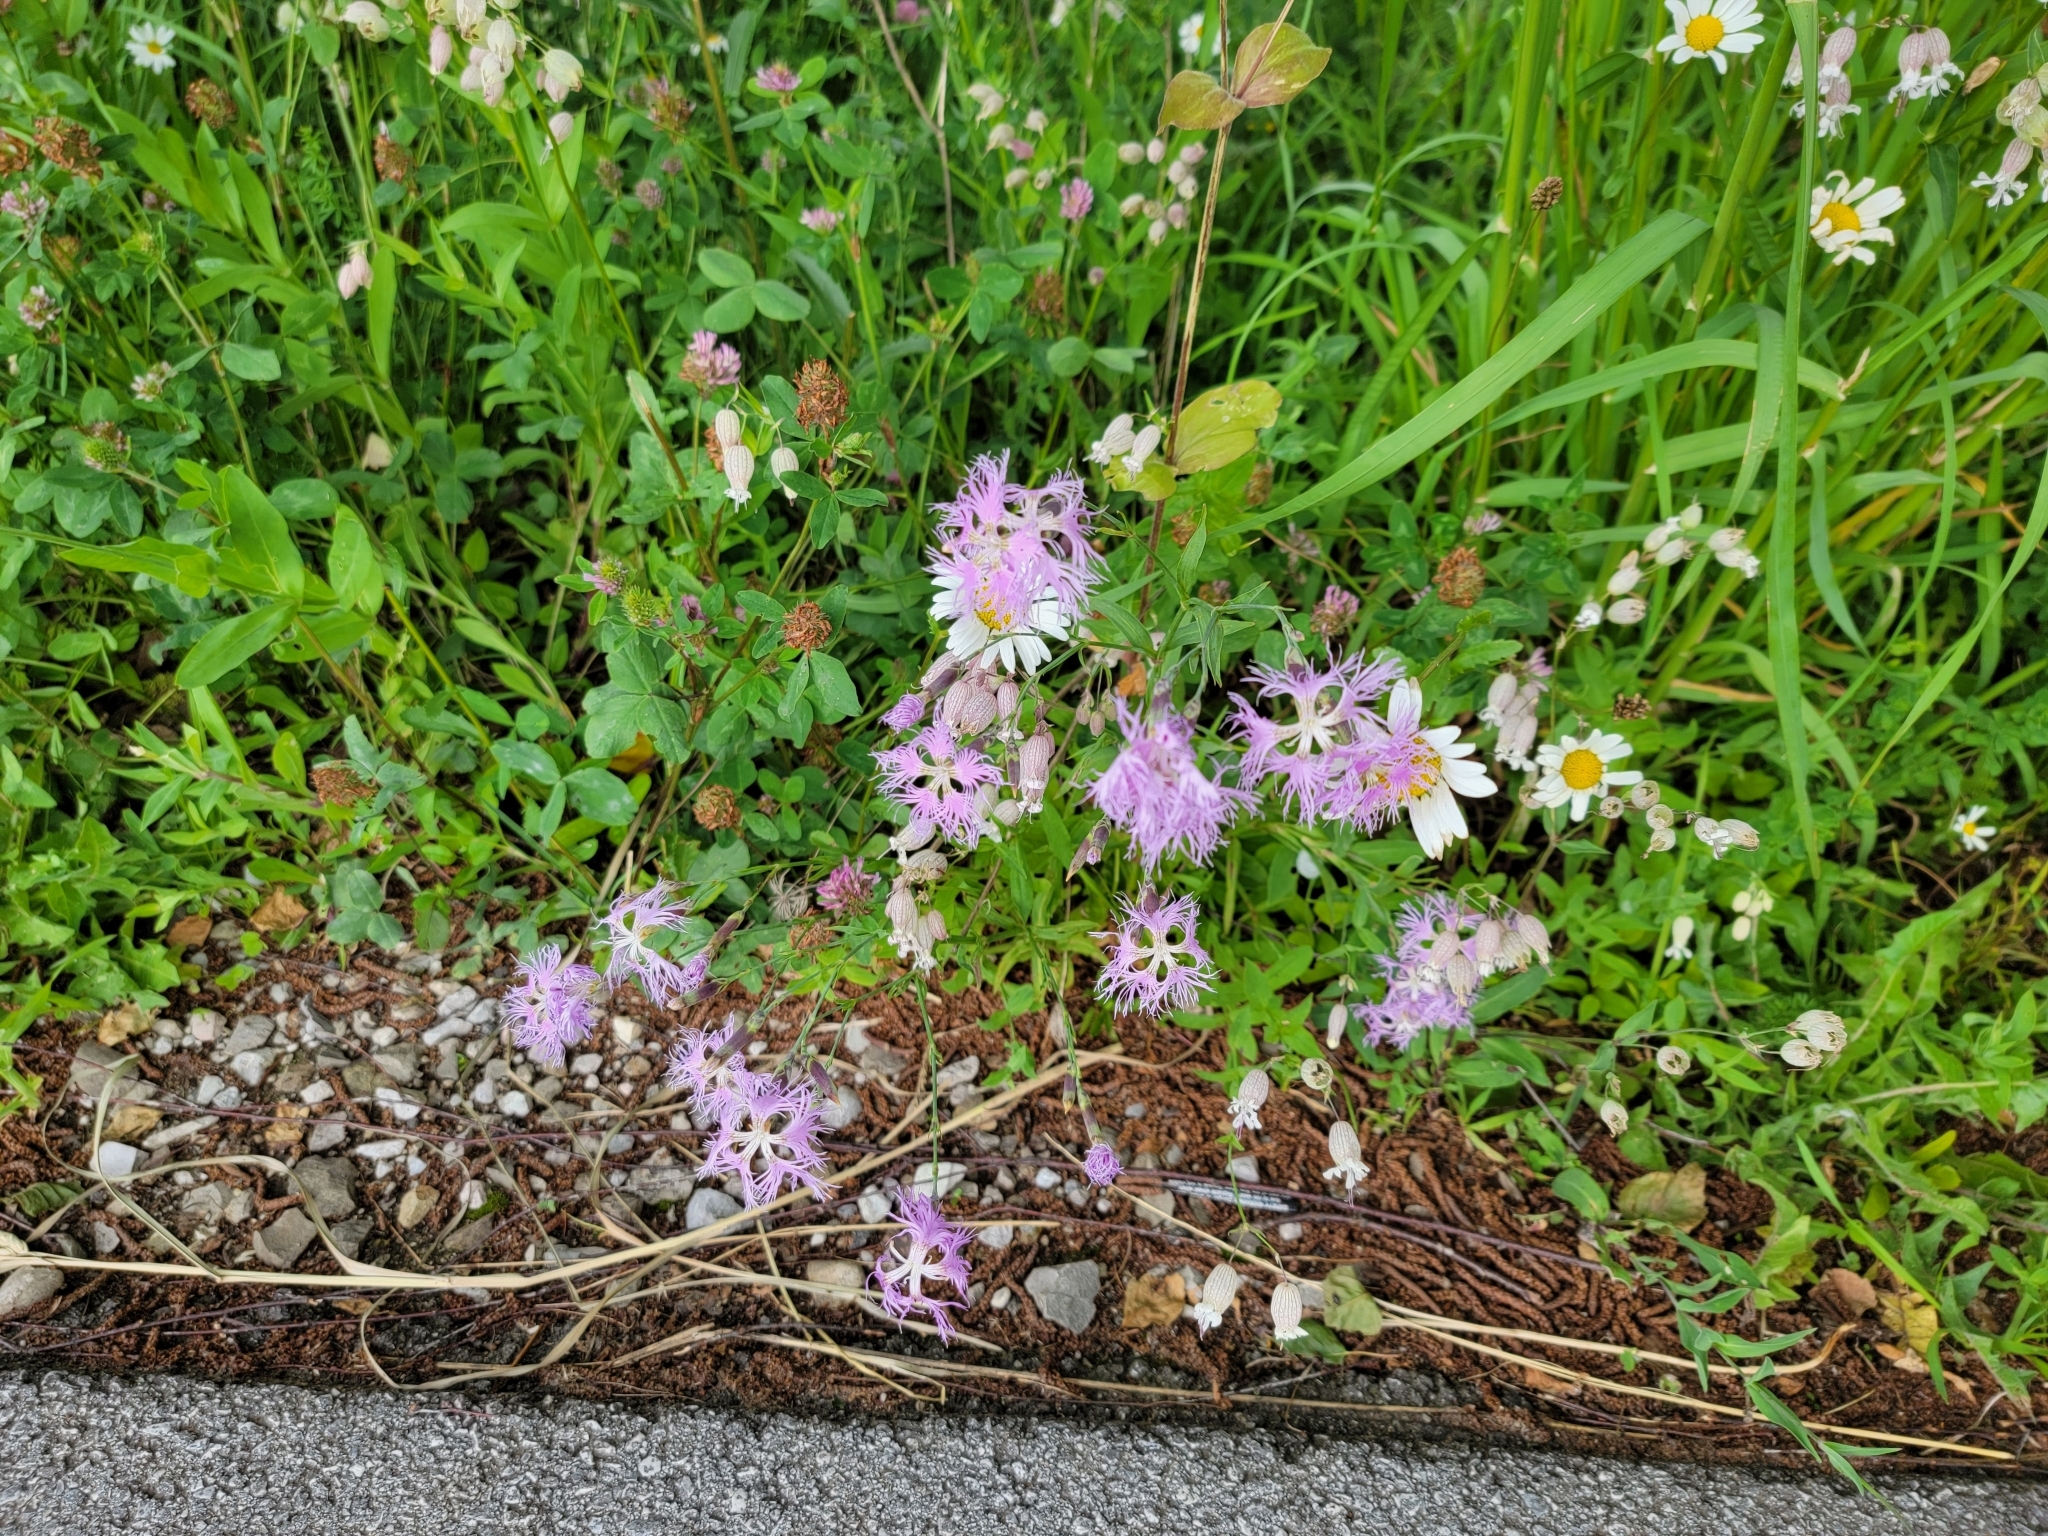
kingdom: Plantae
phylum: Tracheophyta
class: Magnoliopsida
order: Caryophyllales
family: Caryophyllaceae
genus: Dianthus
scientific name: Dianthus superbus
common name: Fringed pink
